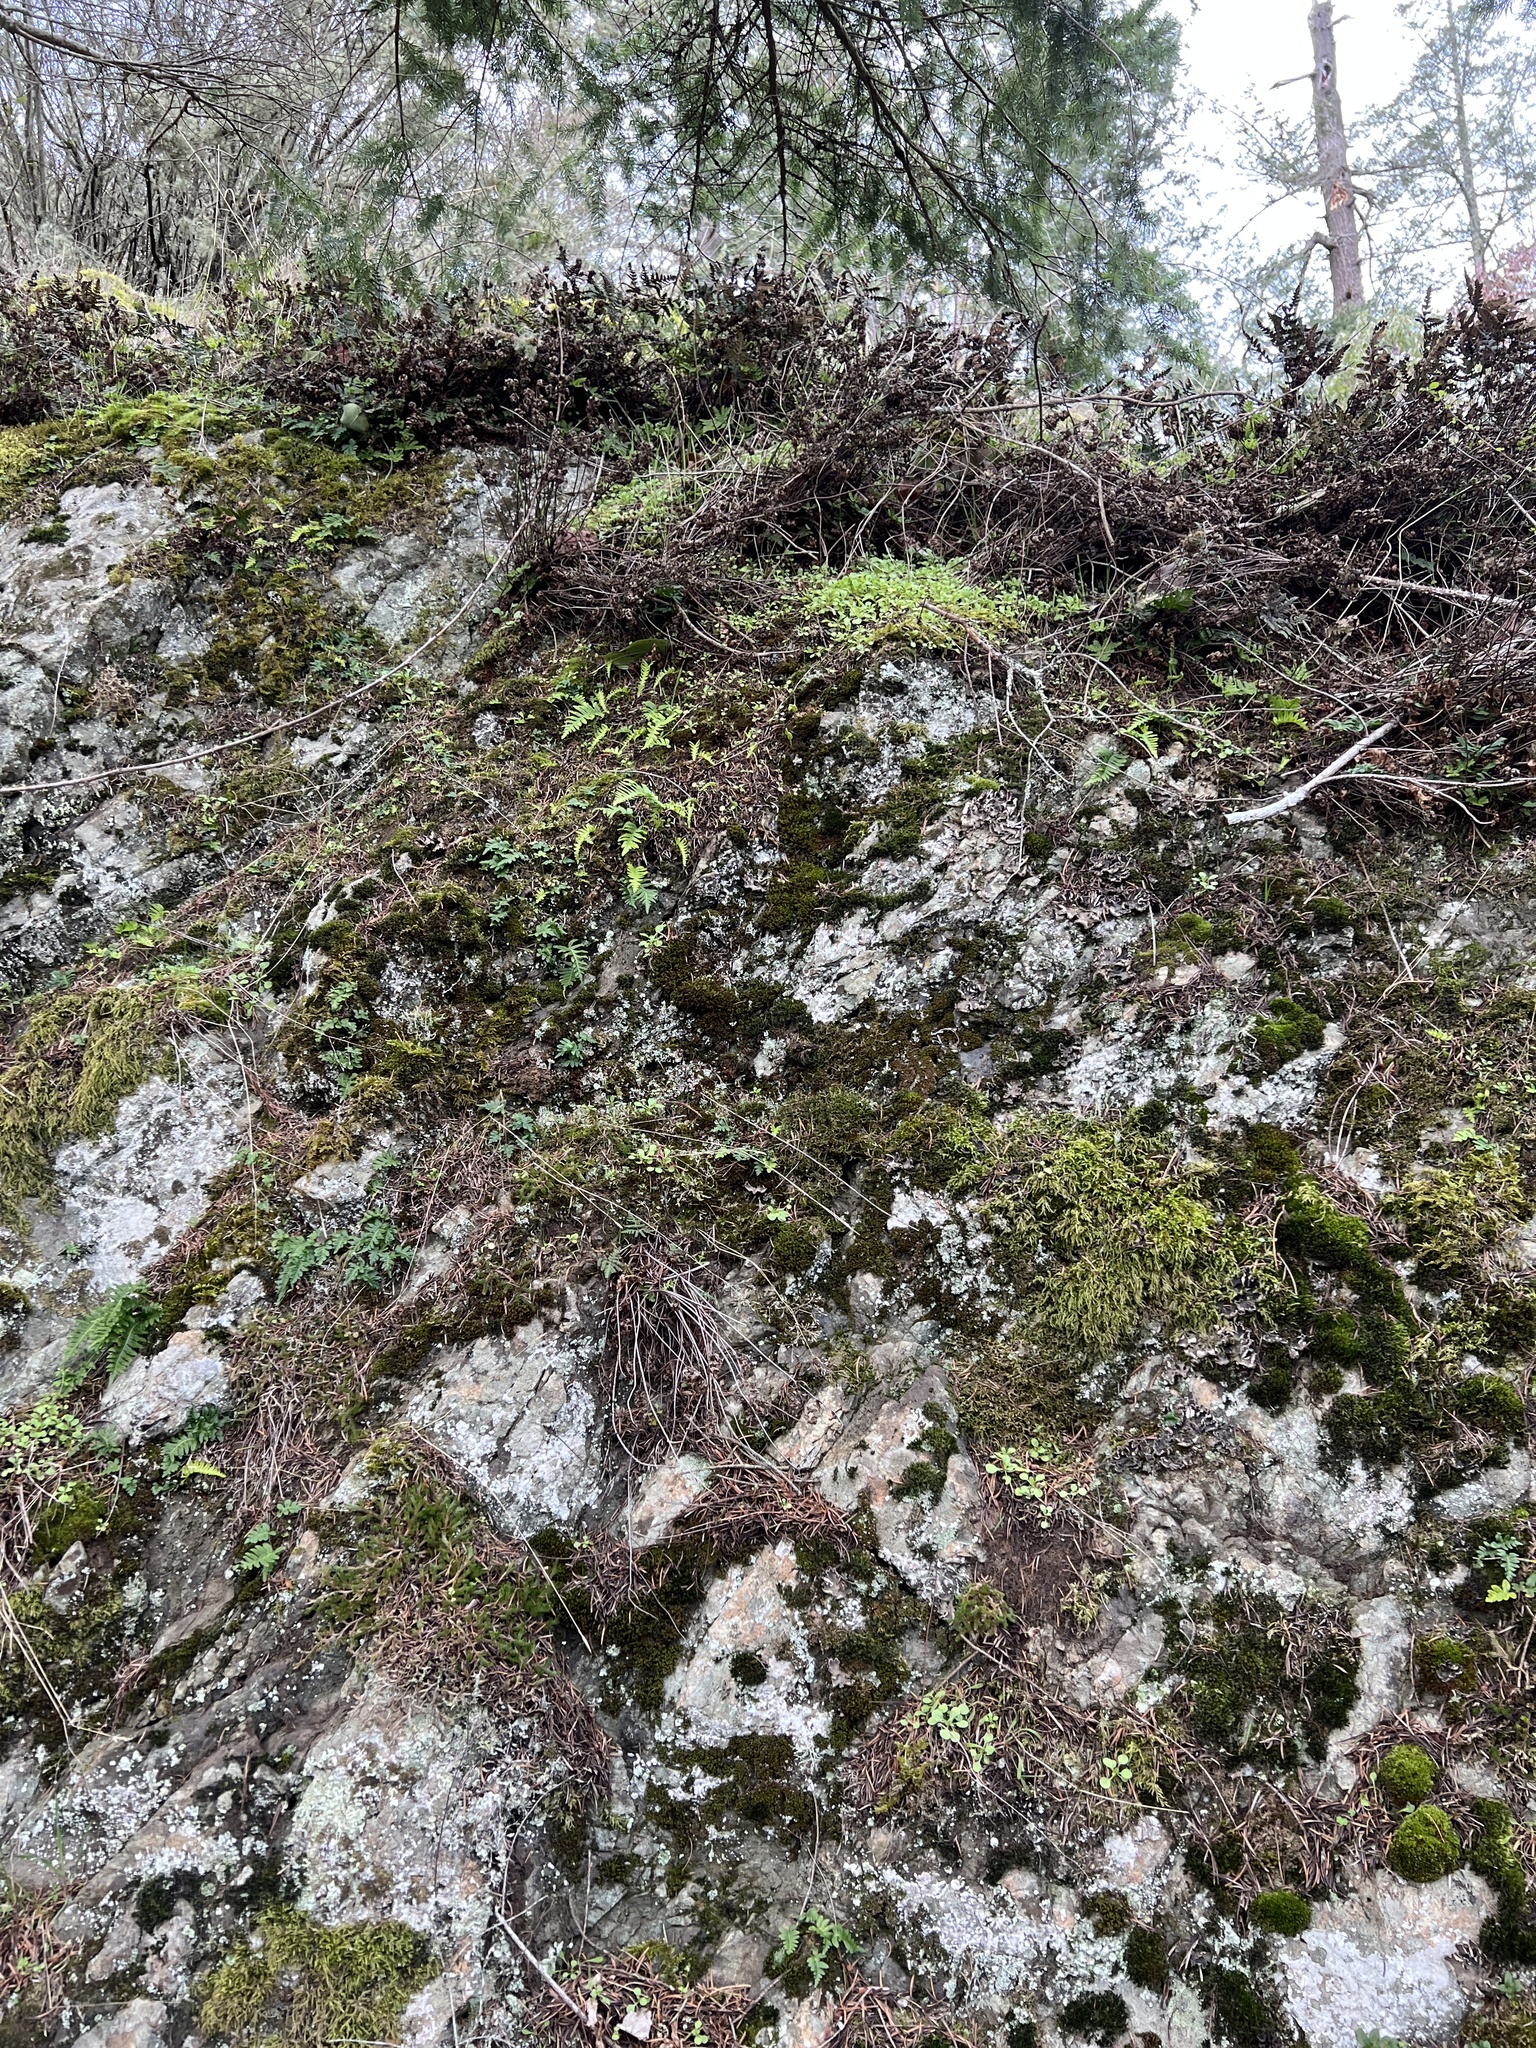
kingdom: Plantae
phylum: Tracheophyta
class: Polypodiopsida
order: Polypodiales
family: Polypodiaceae
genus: Polypodium
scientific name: Polypodium glycyrrhiza
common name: Licorice fern
